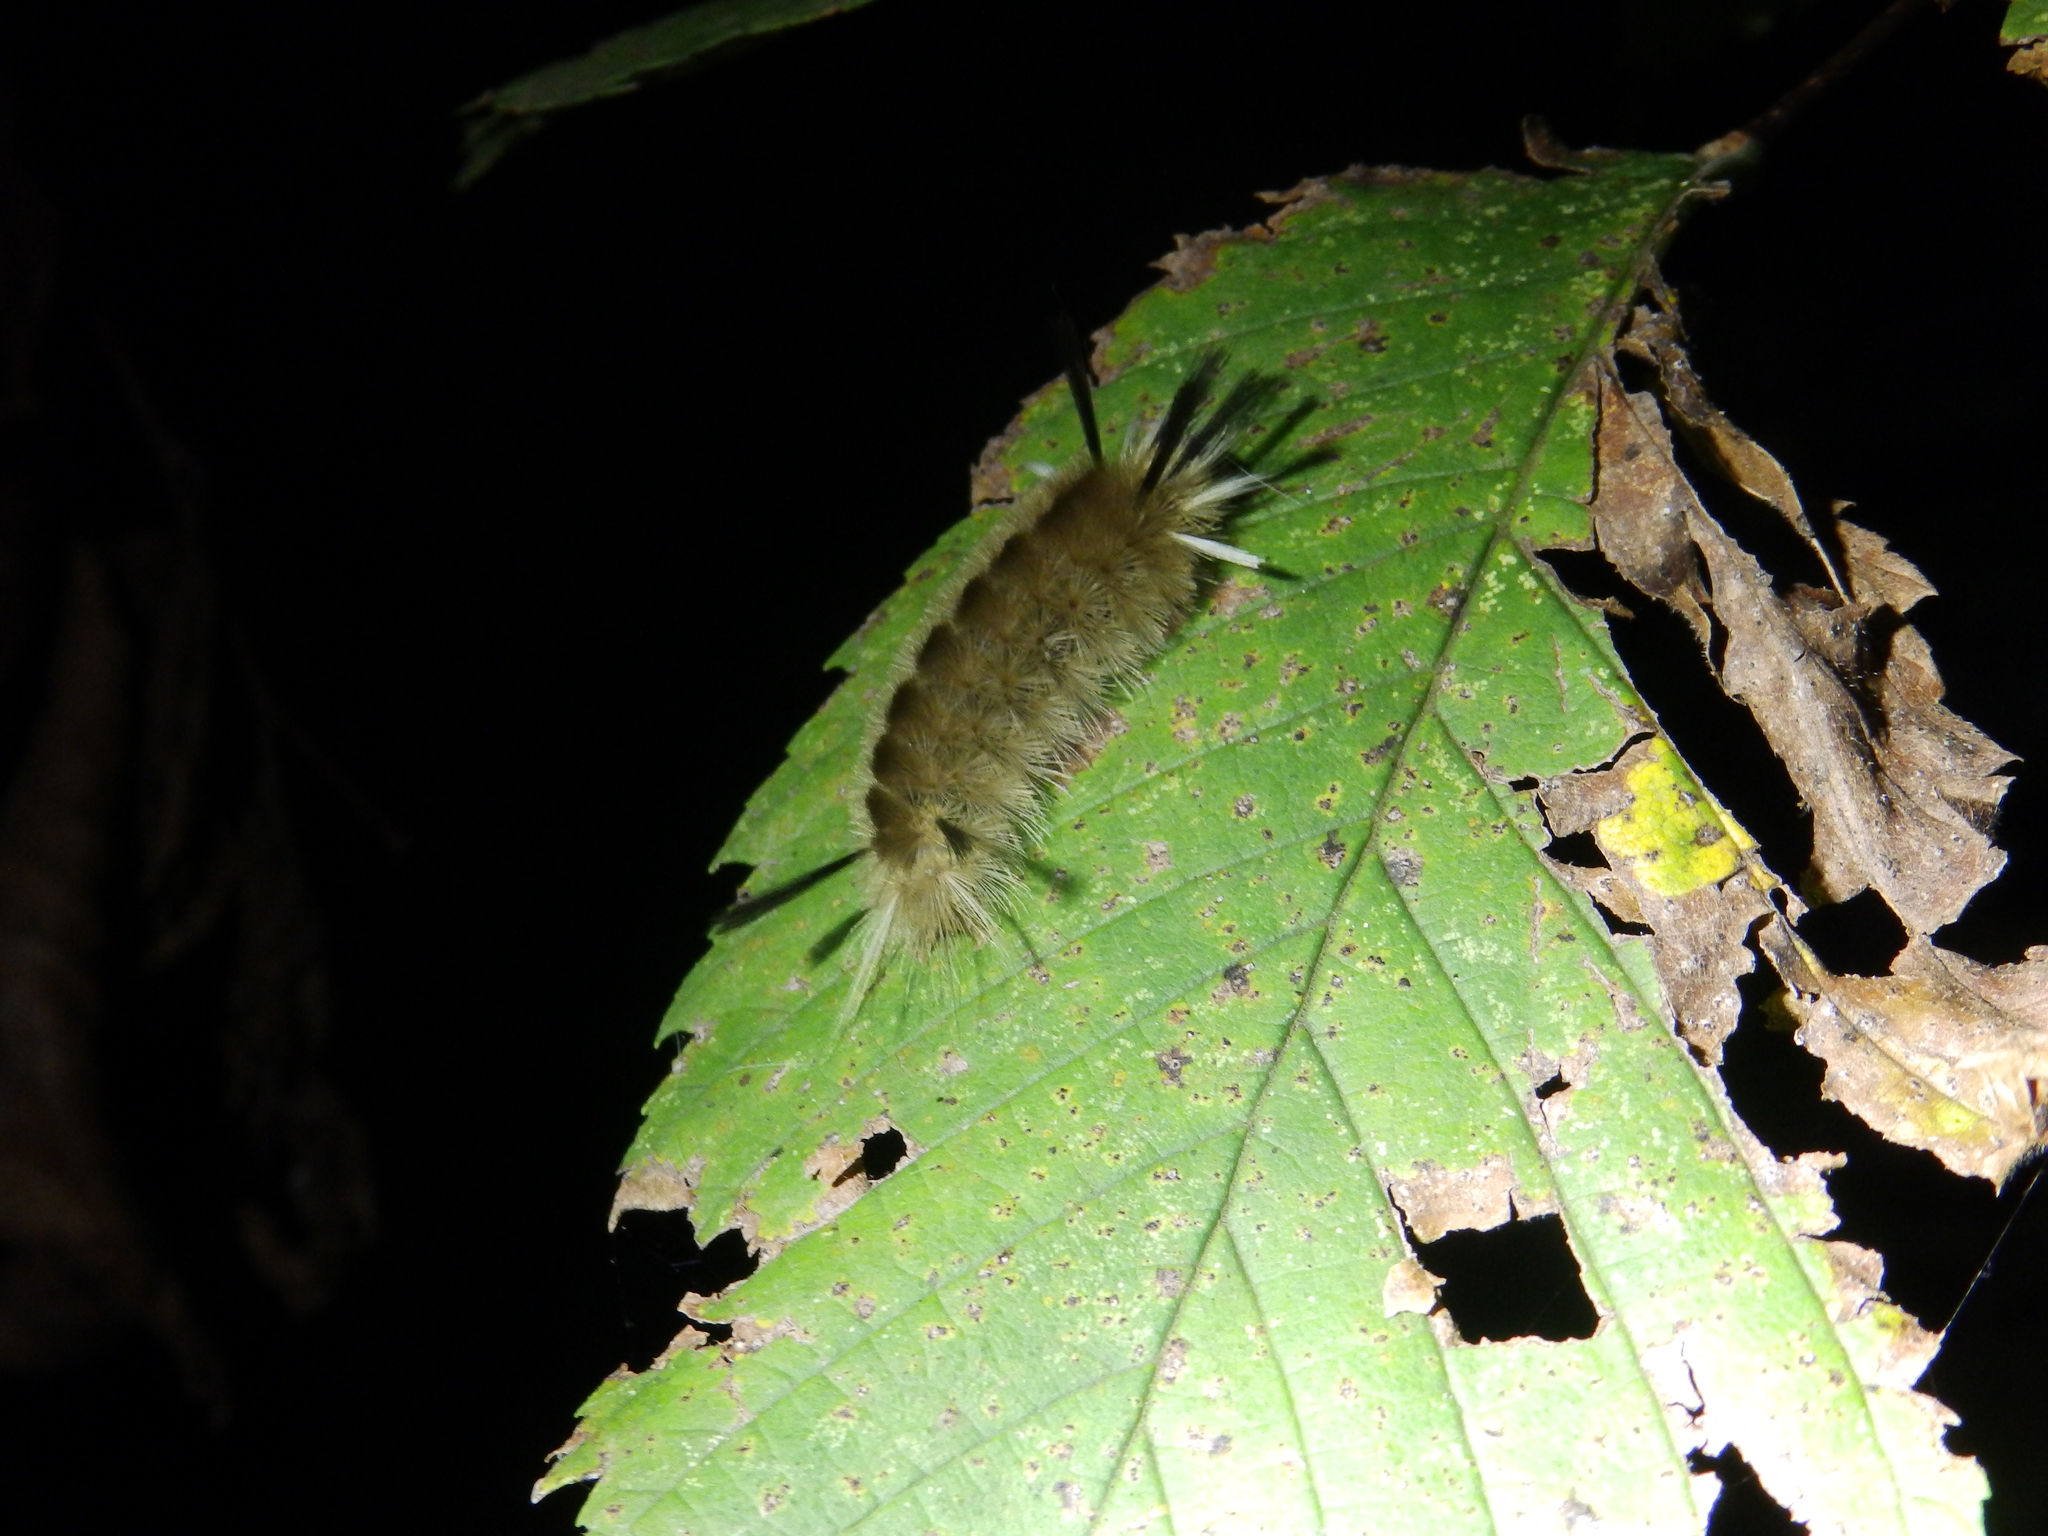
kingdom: Animalia
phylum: Arthropoda
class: Insecta
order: Lepidoptera
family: Erebidae
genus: Halysidota
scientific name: Halysidota tessellaris
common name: Banded tussock moth
